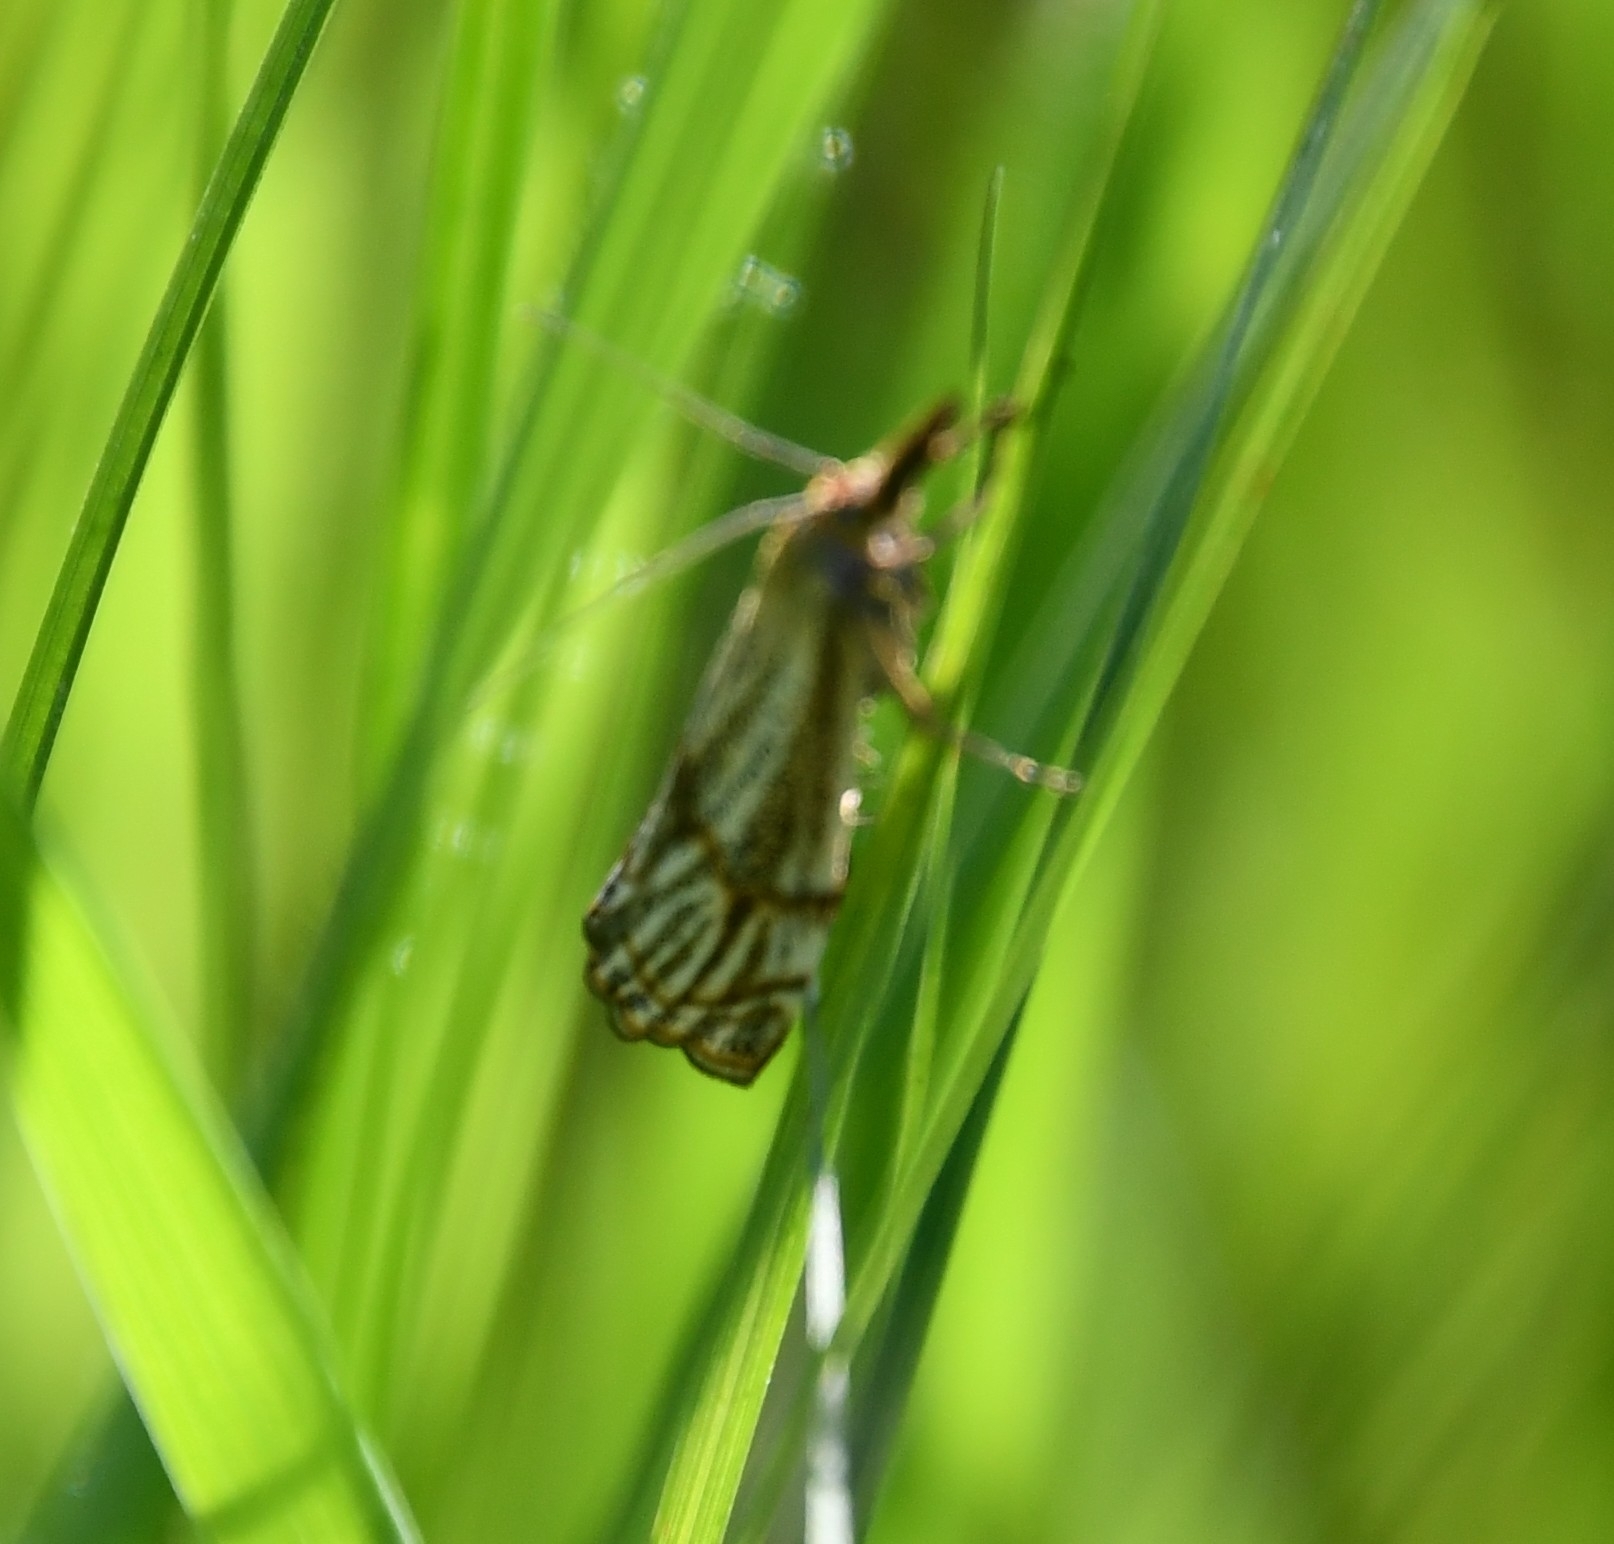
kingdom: Animalia
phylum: Arthropoda
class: Insecta
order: Lepidoptera
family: Crambidae
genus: Thisanotia
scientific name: Thisanotia chrysonuchella
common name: Powdered grass-veneer
